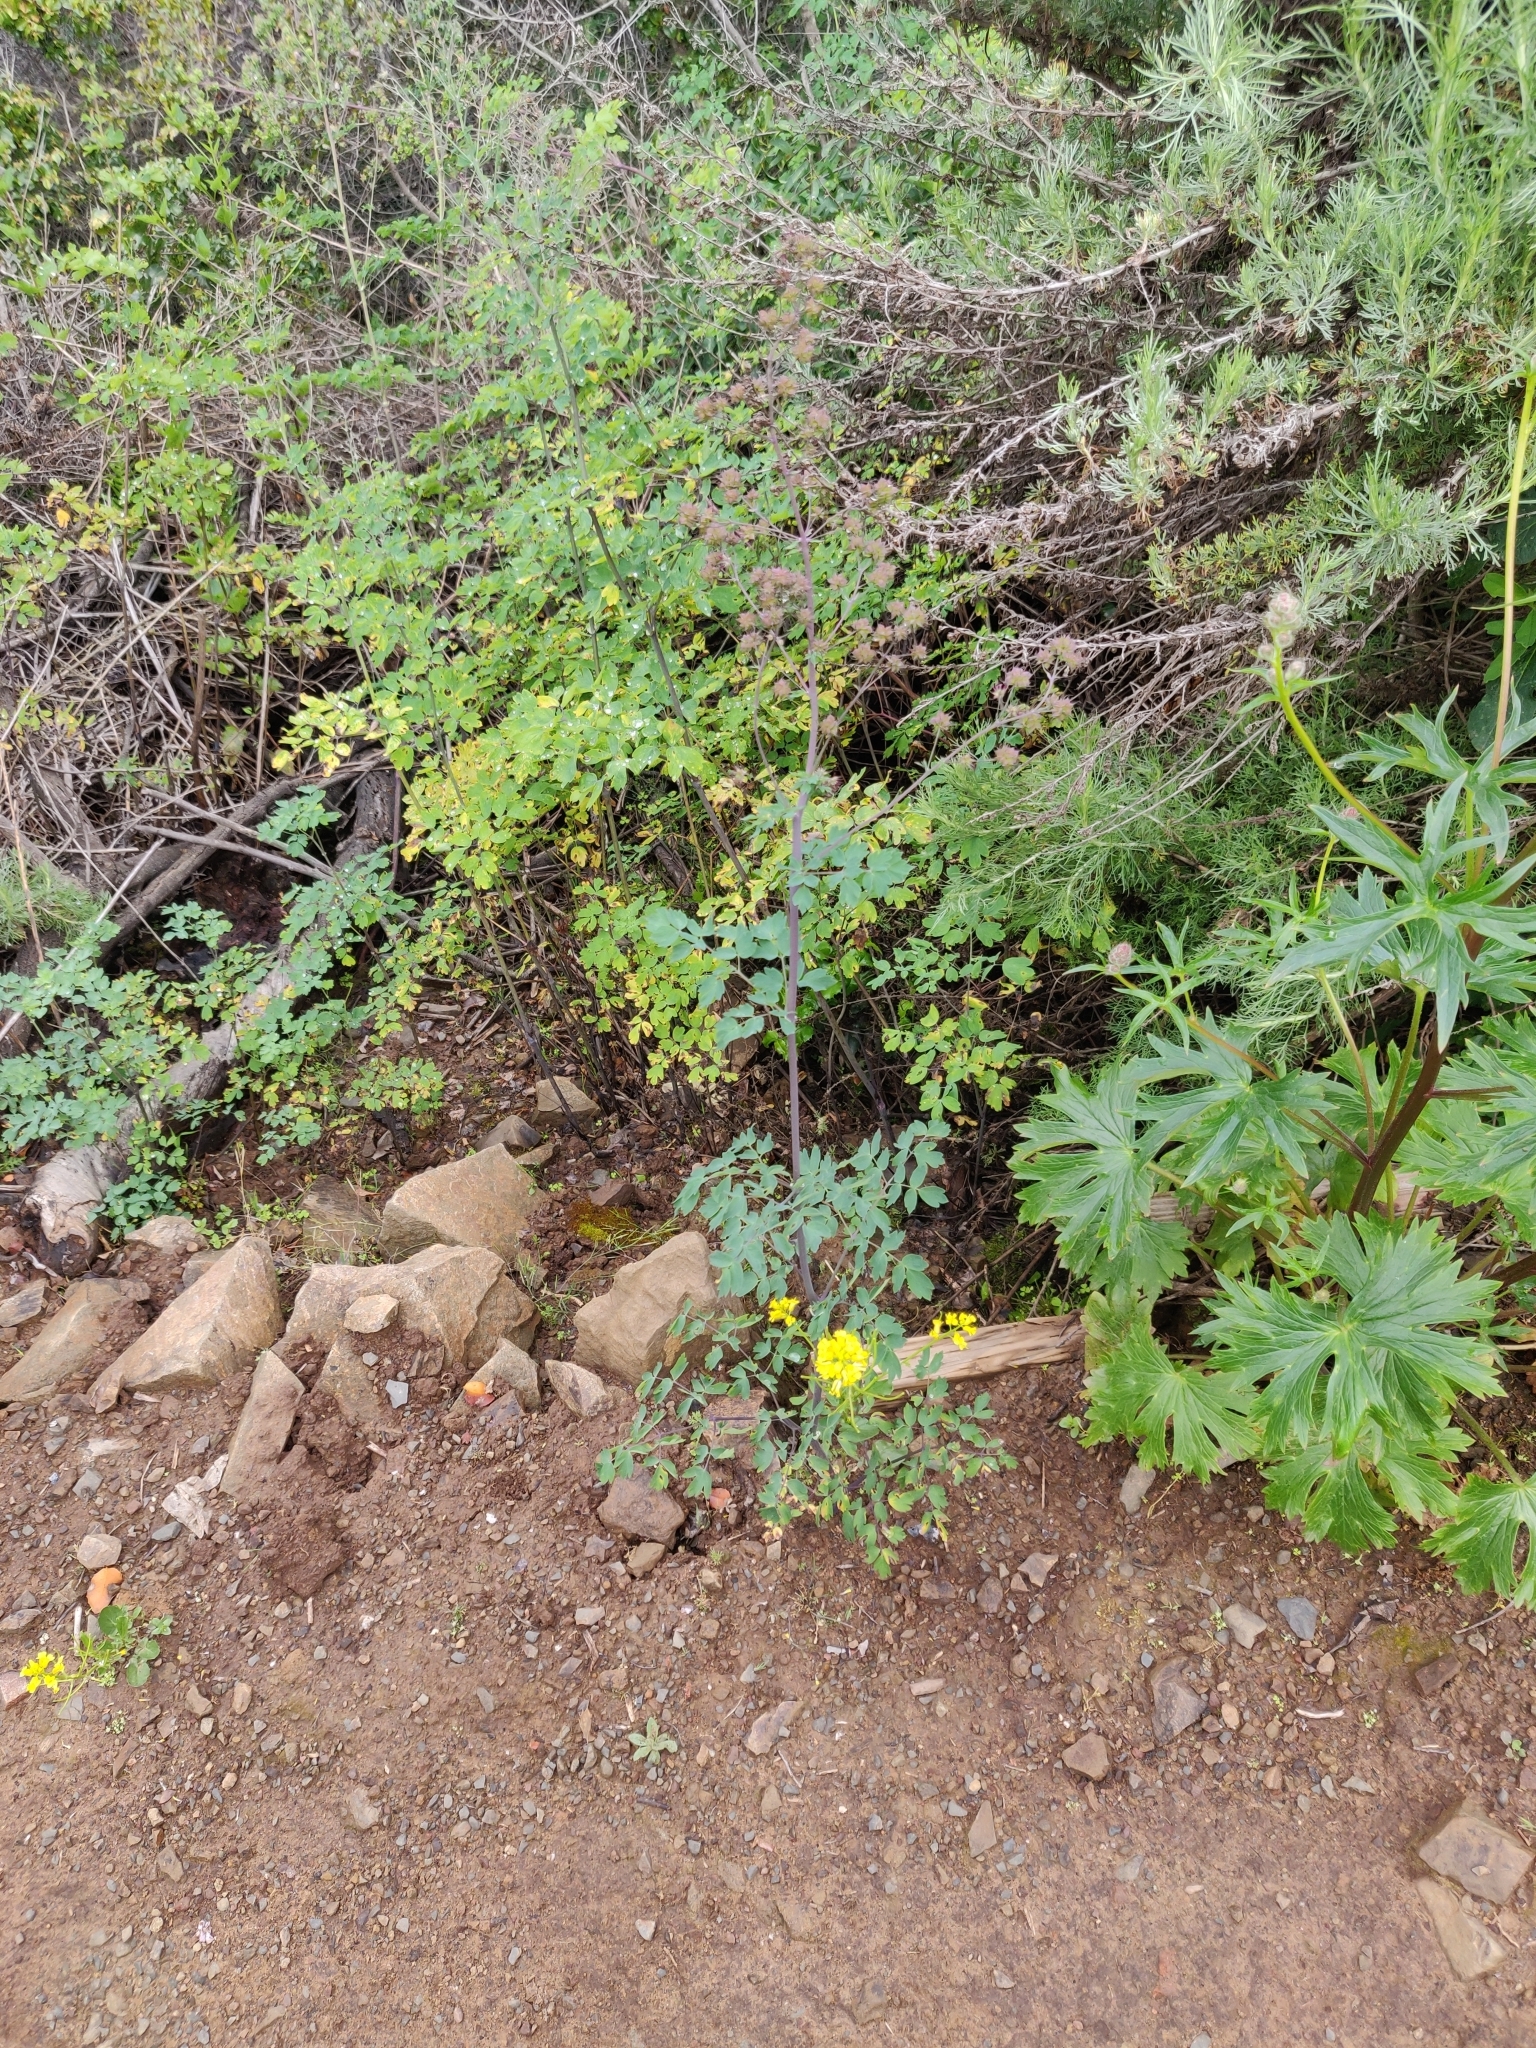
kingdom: Plantae
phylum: Tracheophyta
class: Magnoliopsida
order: Ranunculales
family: Ranunculaceae
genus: Thalictrum
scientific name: Thalictrum fendleri
